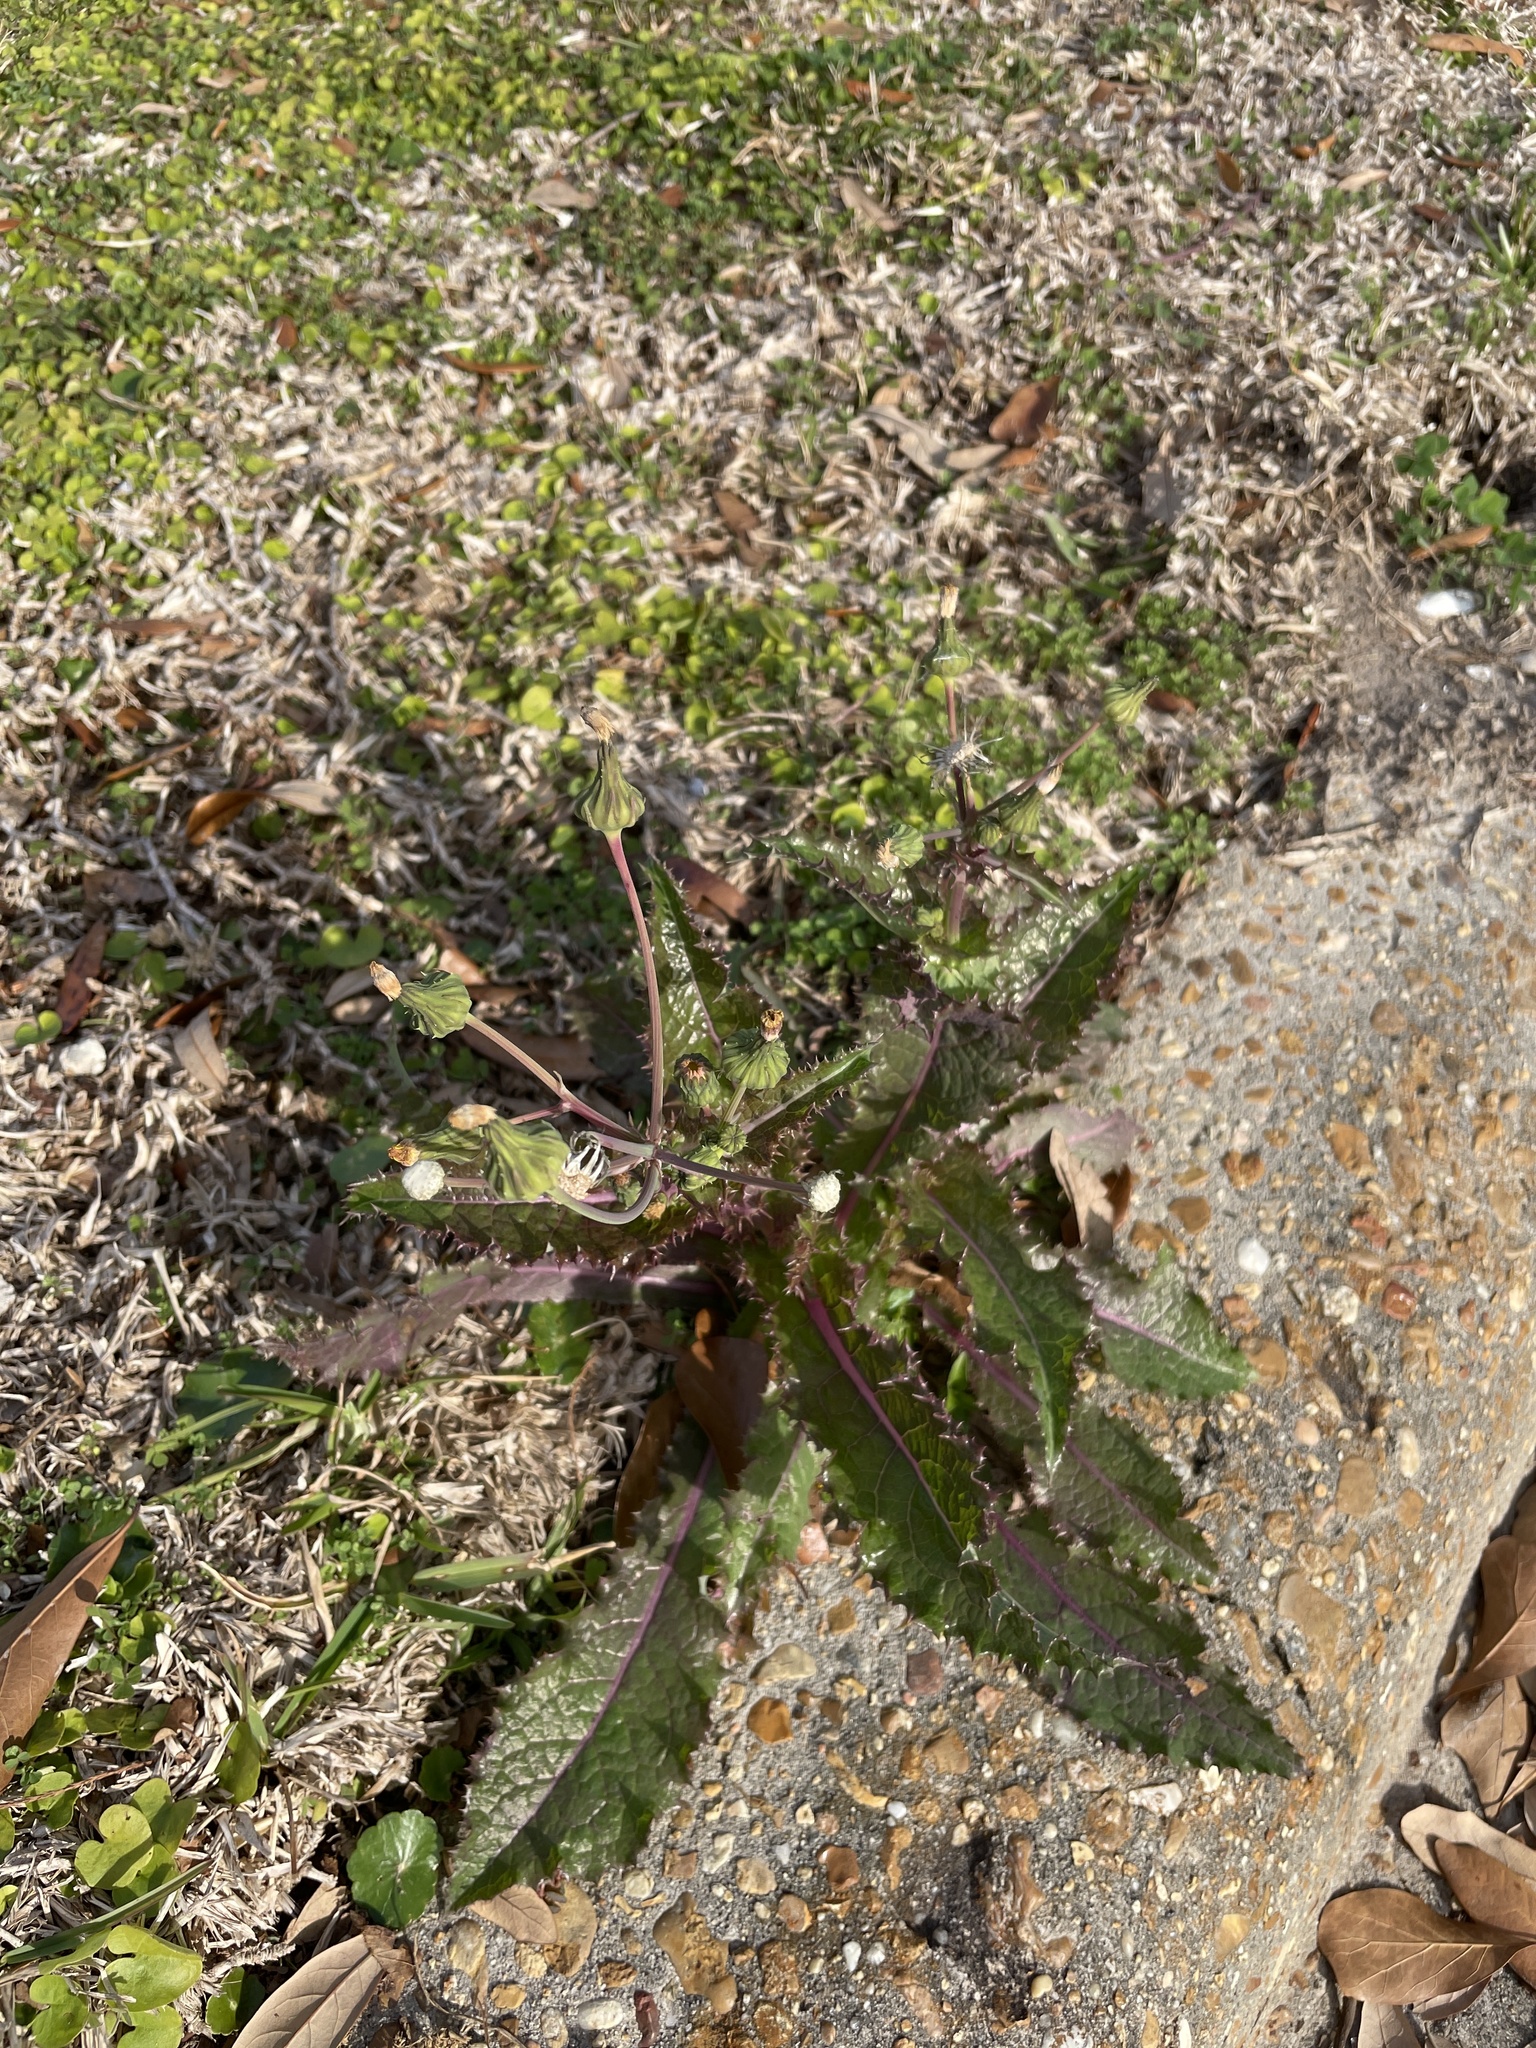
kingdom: Plantae
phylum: Tracheophyta
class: Magnoliopsida
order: Asterales
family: Asteraceae
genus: Sonchus
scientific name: Sonchus asper
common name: Prickly sow-thistle
